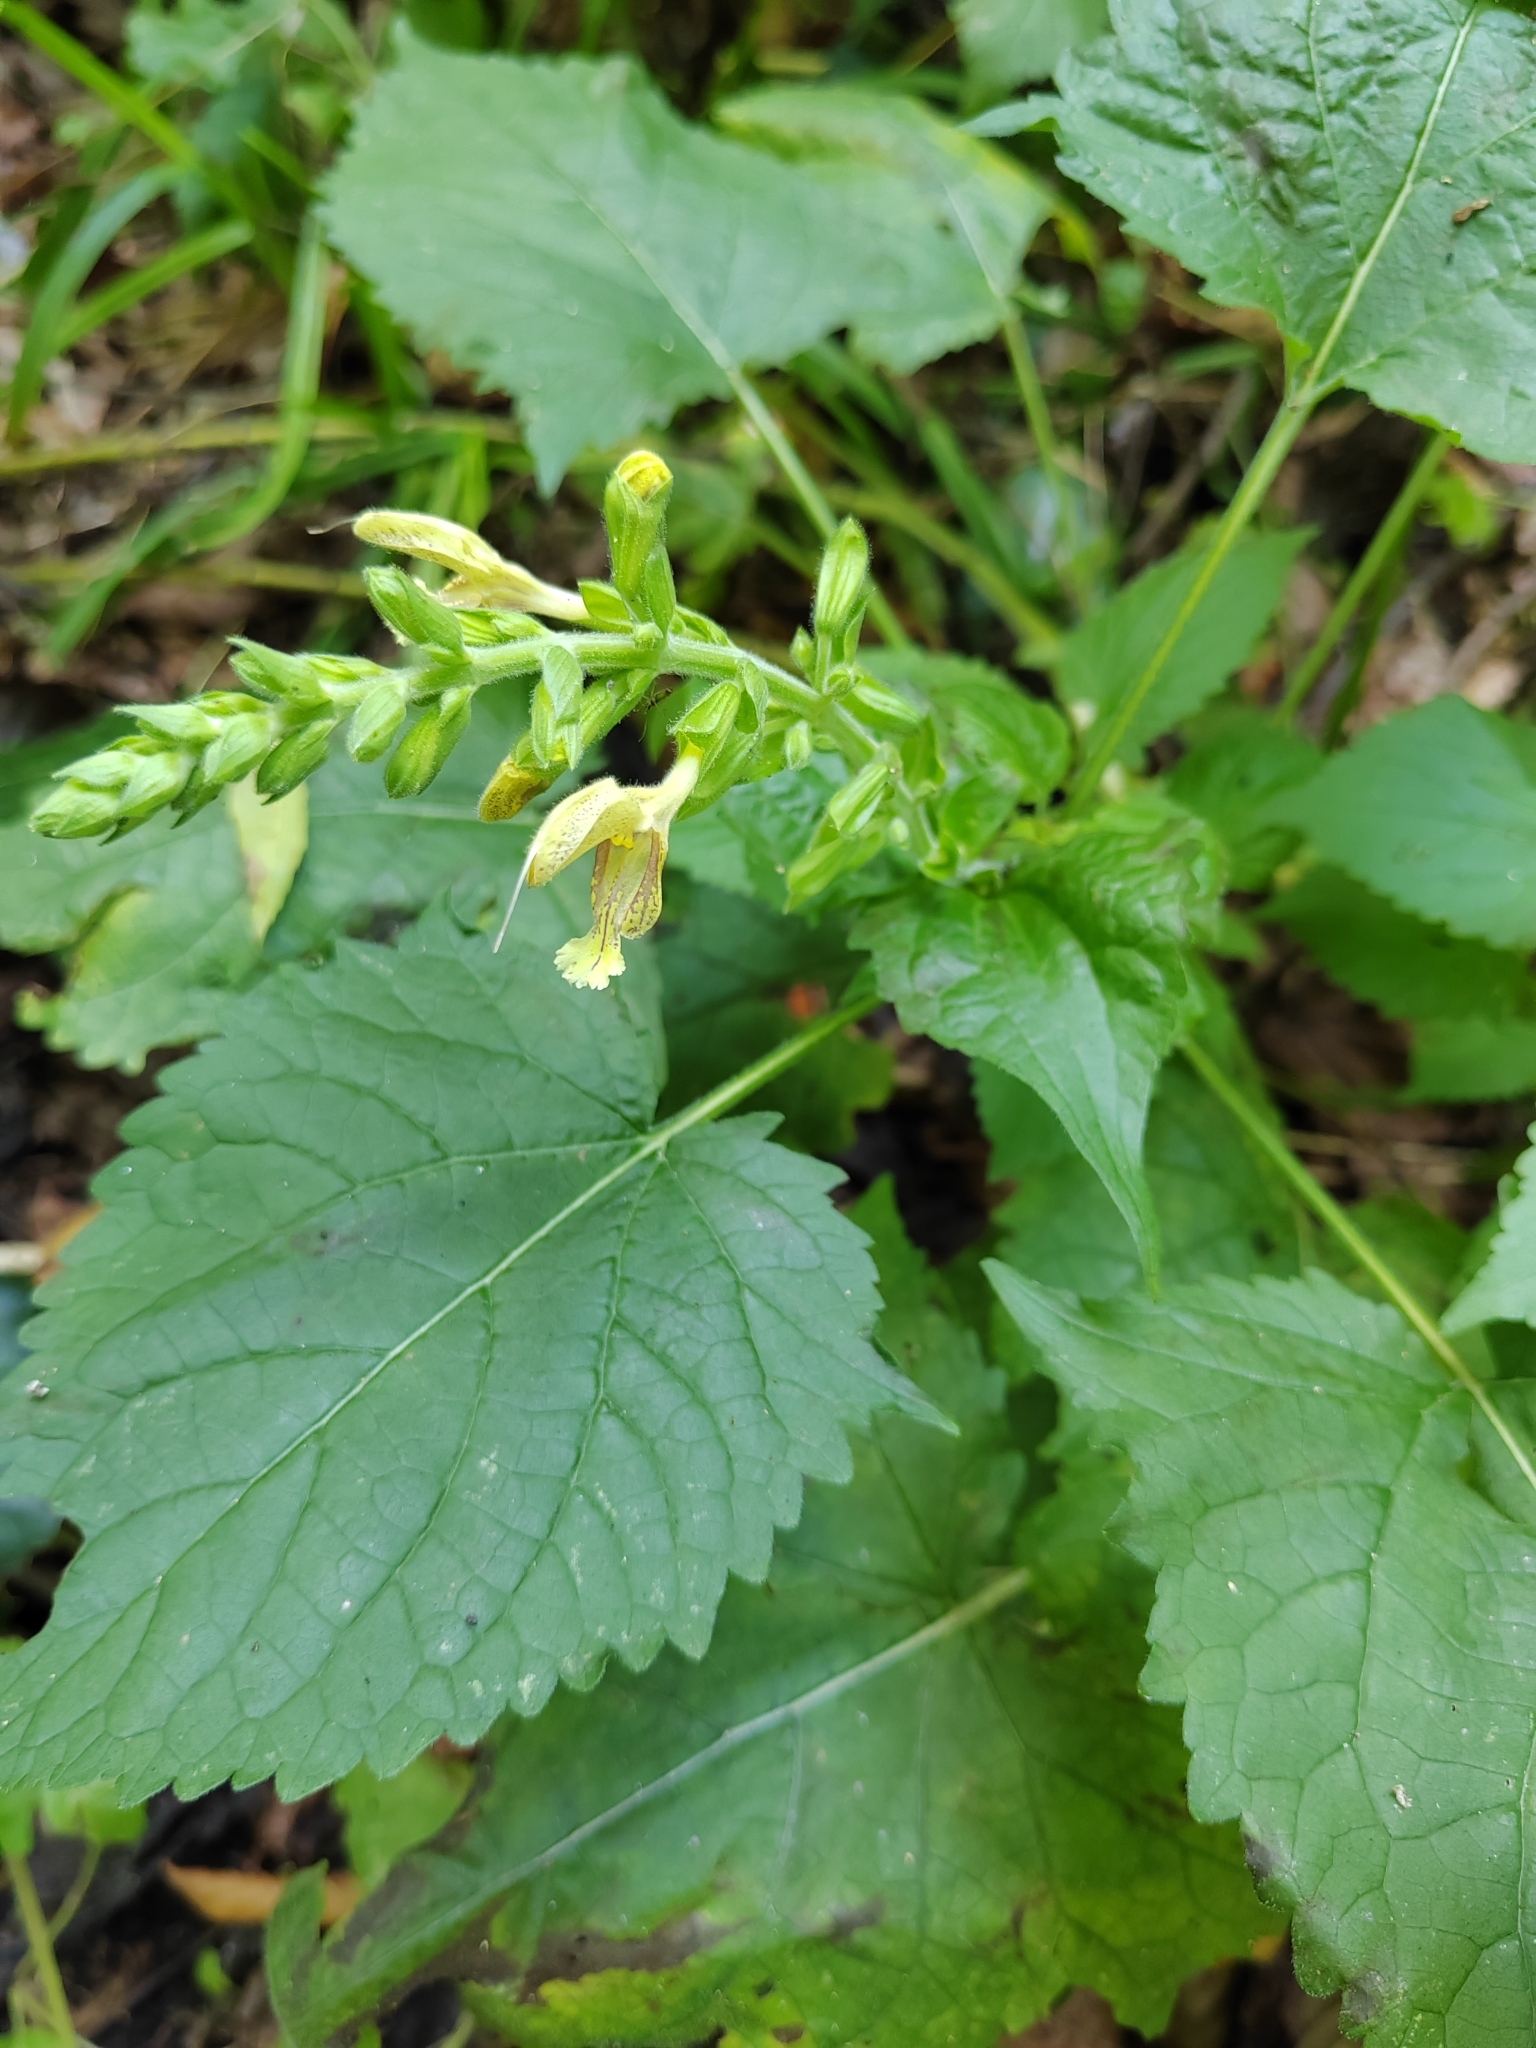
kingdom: Plantae
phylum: Tracheophyta
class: Magnoliopsida
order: Lamiales
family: Lamiaceae
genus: Salvia
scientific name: Salvia glutinosa
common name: Sticky clary
